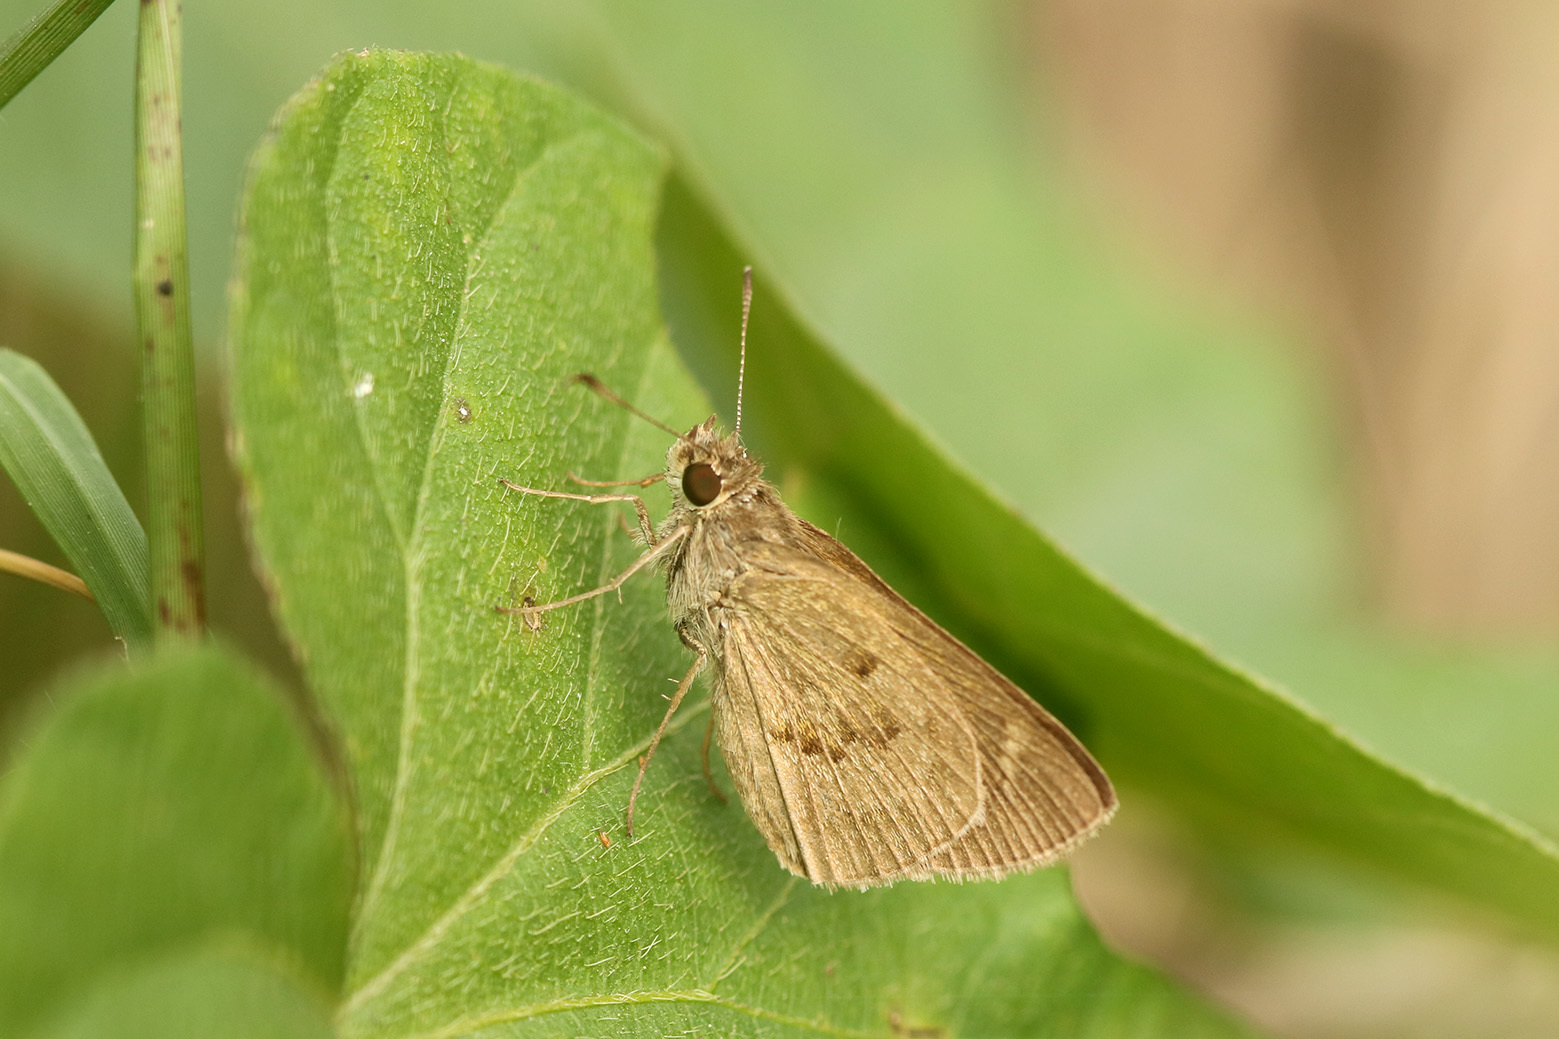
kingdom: Animalia
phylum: Arthropoda
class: Insecta
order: Lepidoptera
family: Hesperiidae
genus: Cymaenes
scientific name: Cymaenes gisca
